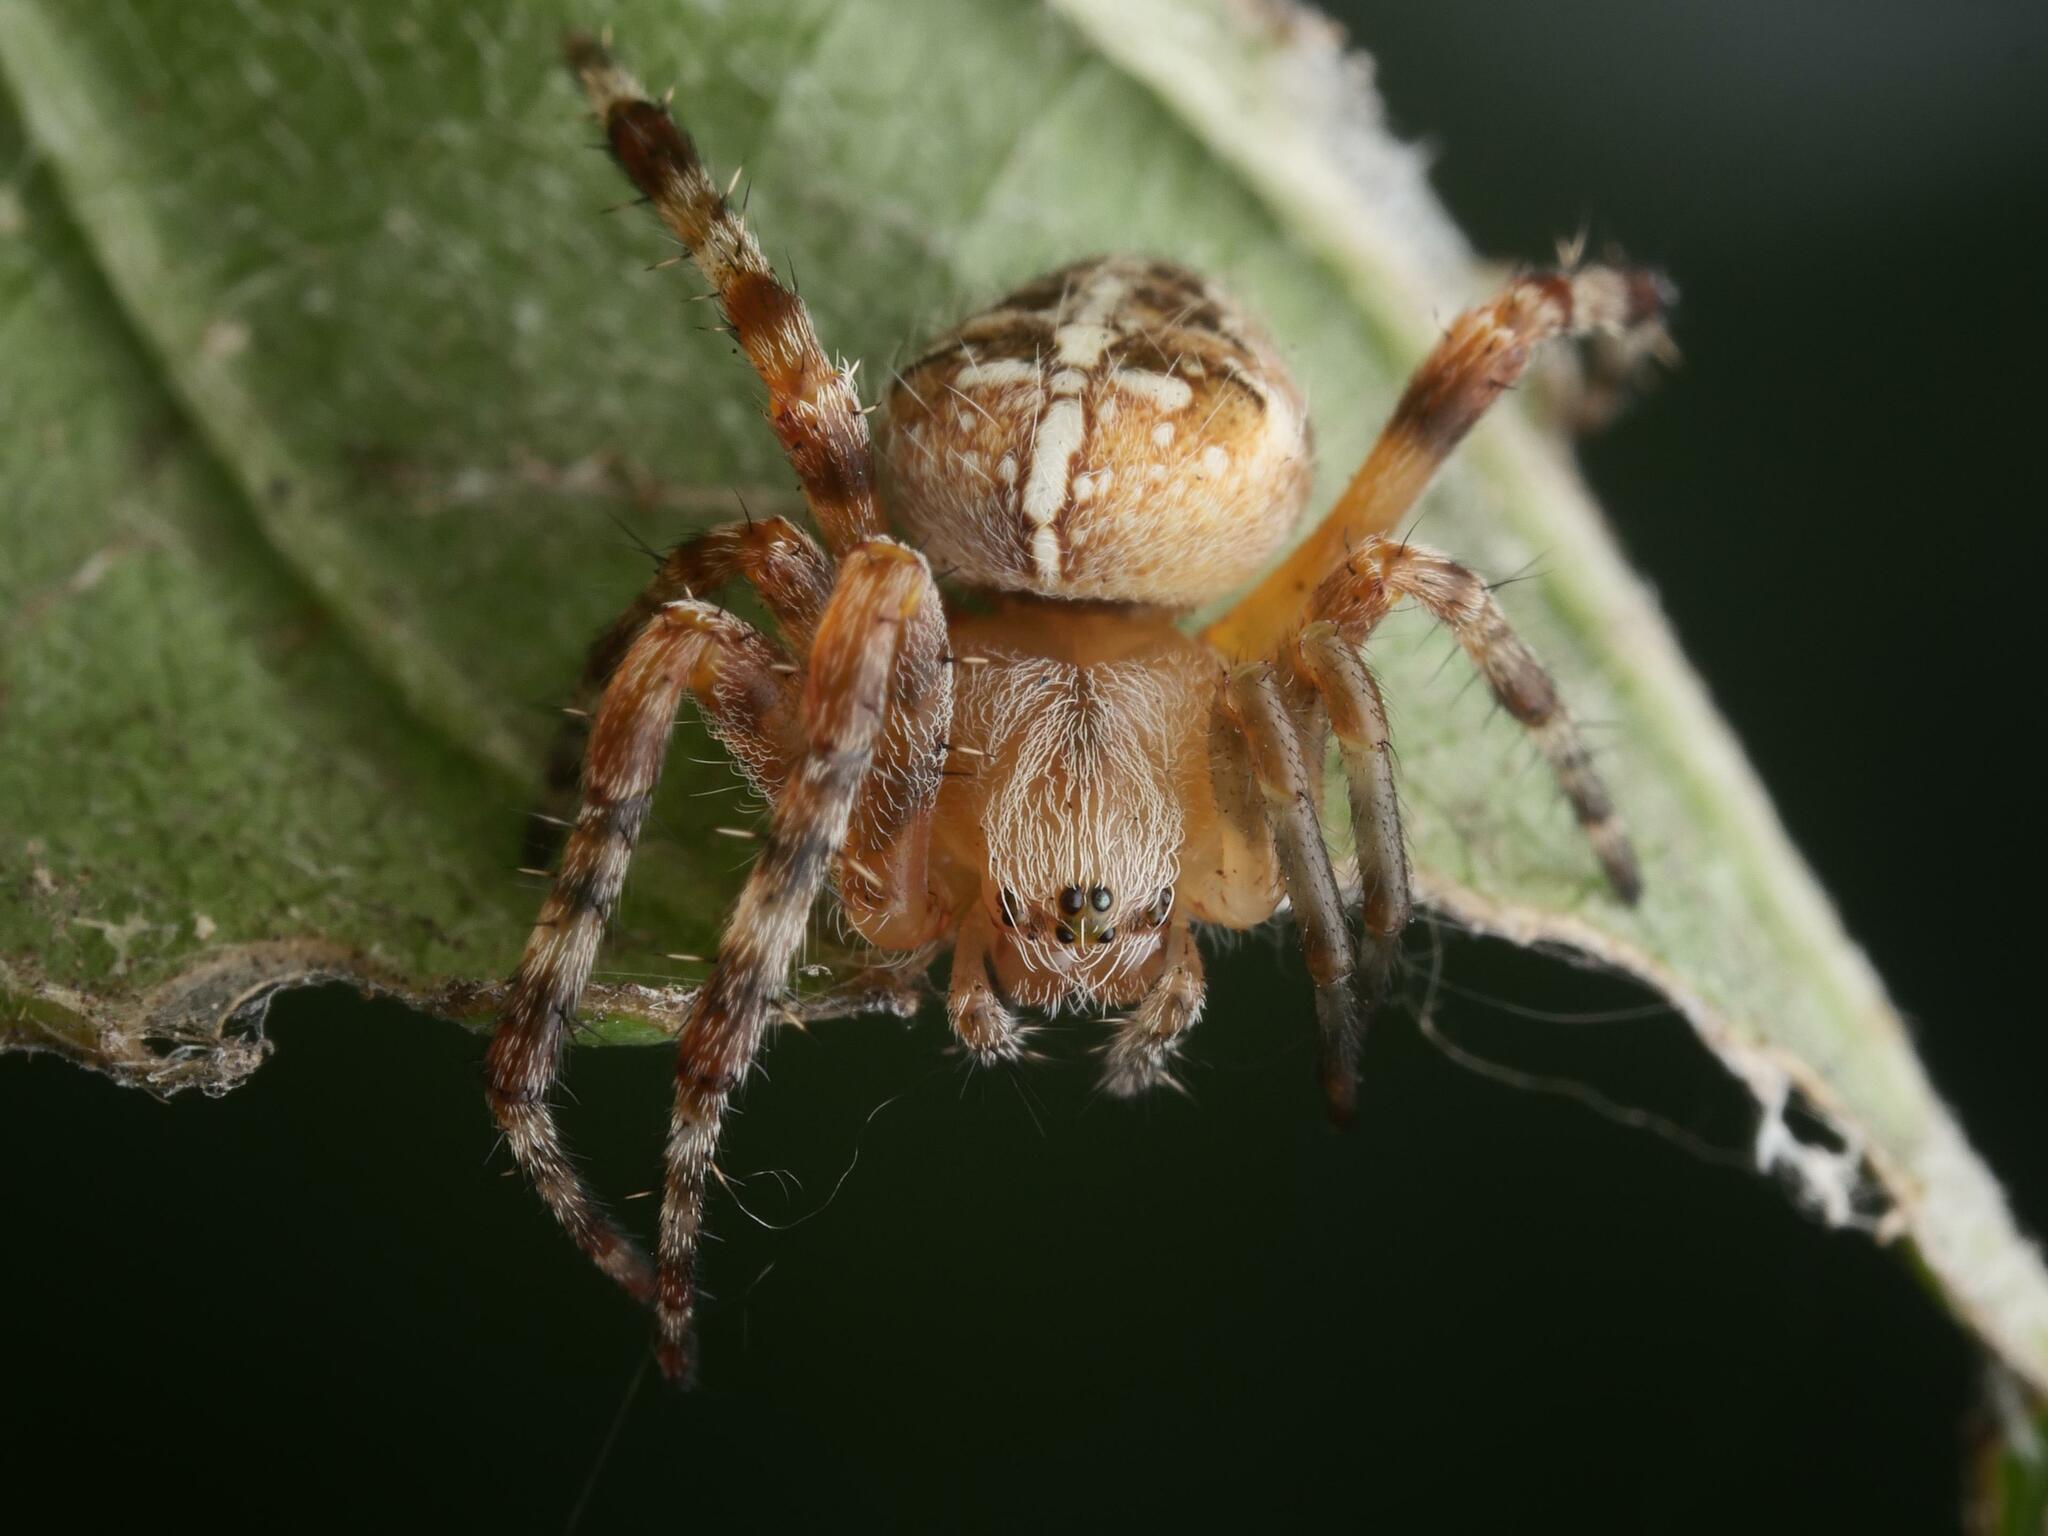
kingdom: Animalia
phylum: Arthropoda
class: Arachnida
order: Araneae
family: Araneidae
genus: Araneus
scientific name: Araneus diadematus
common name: Cross orbweaver
